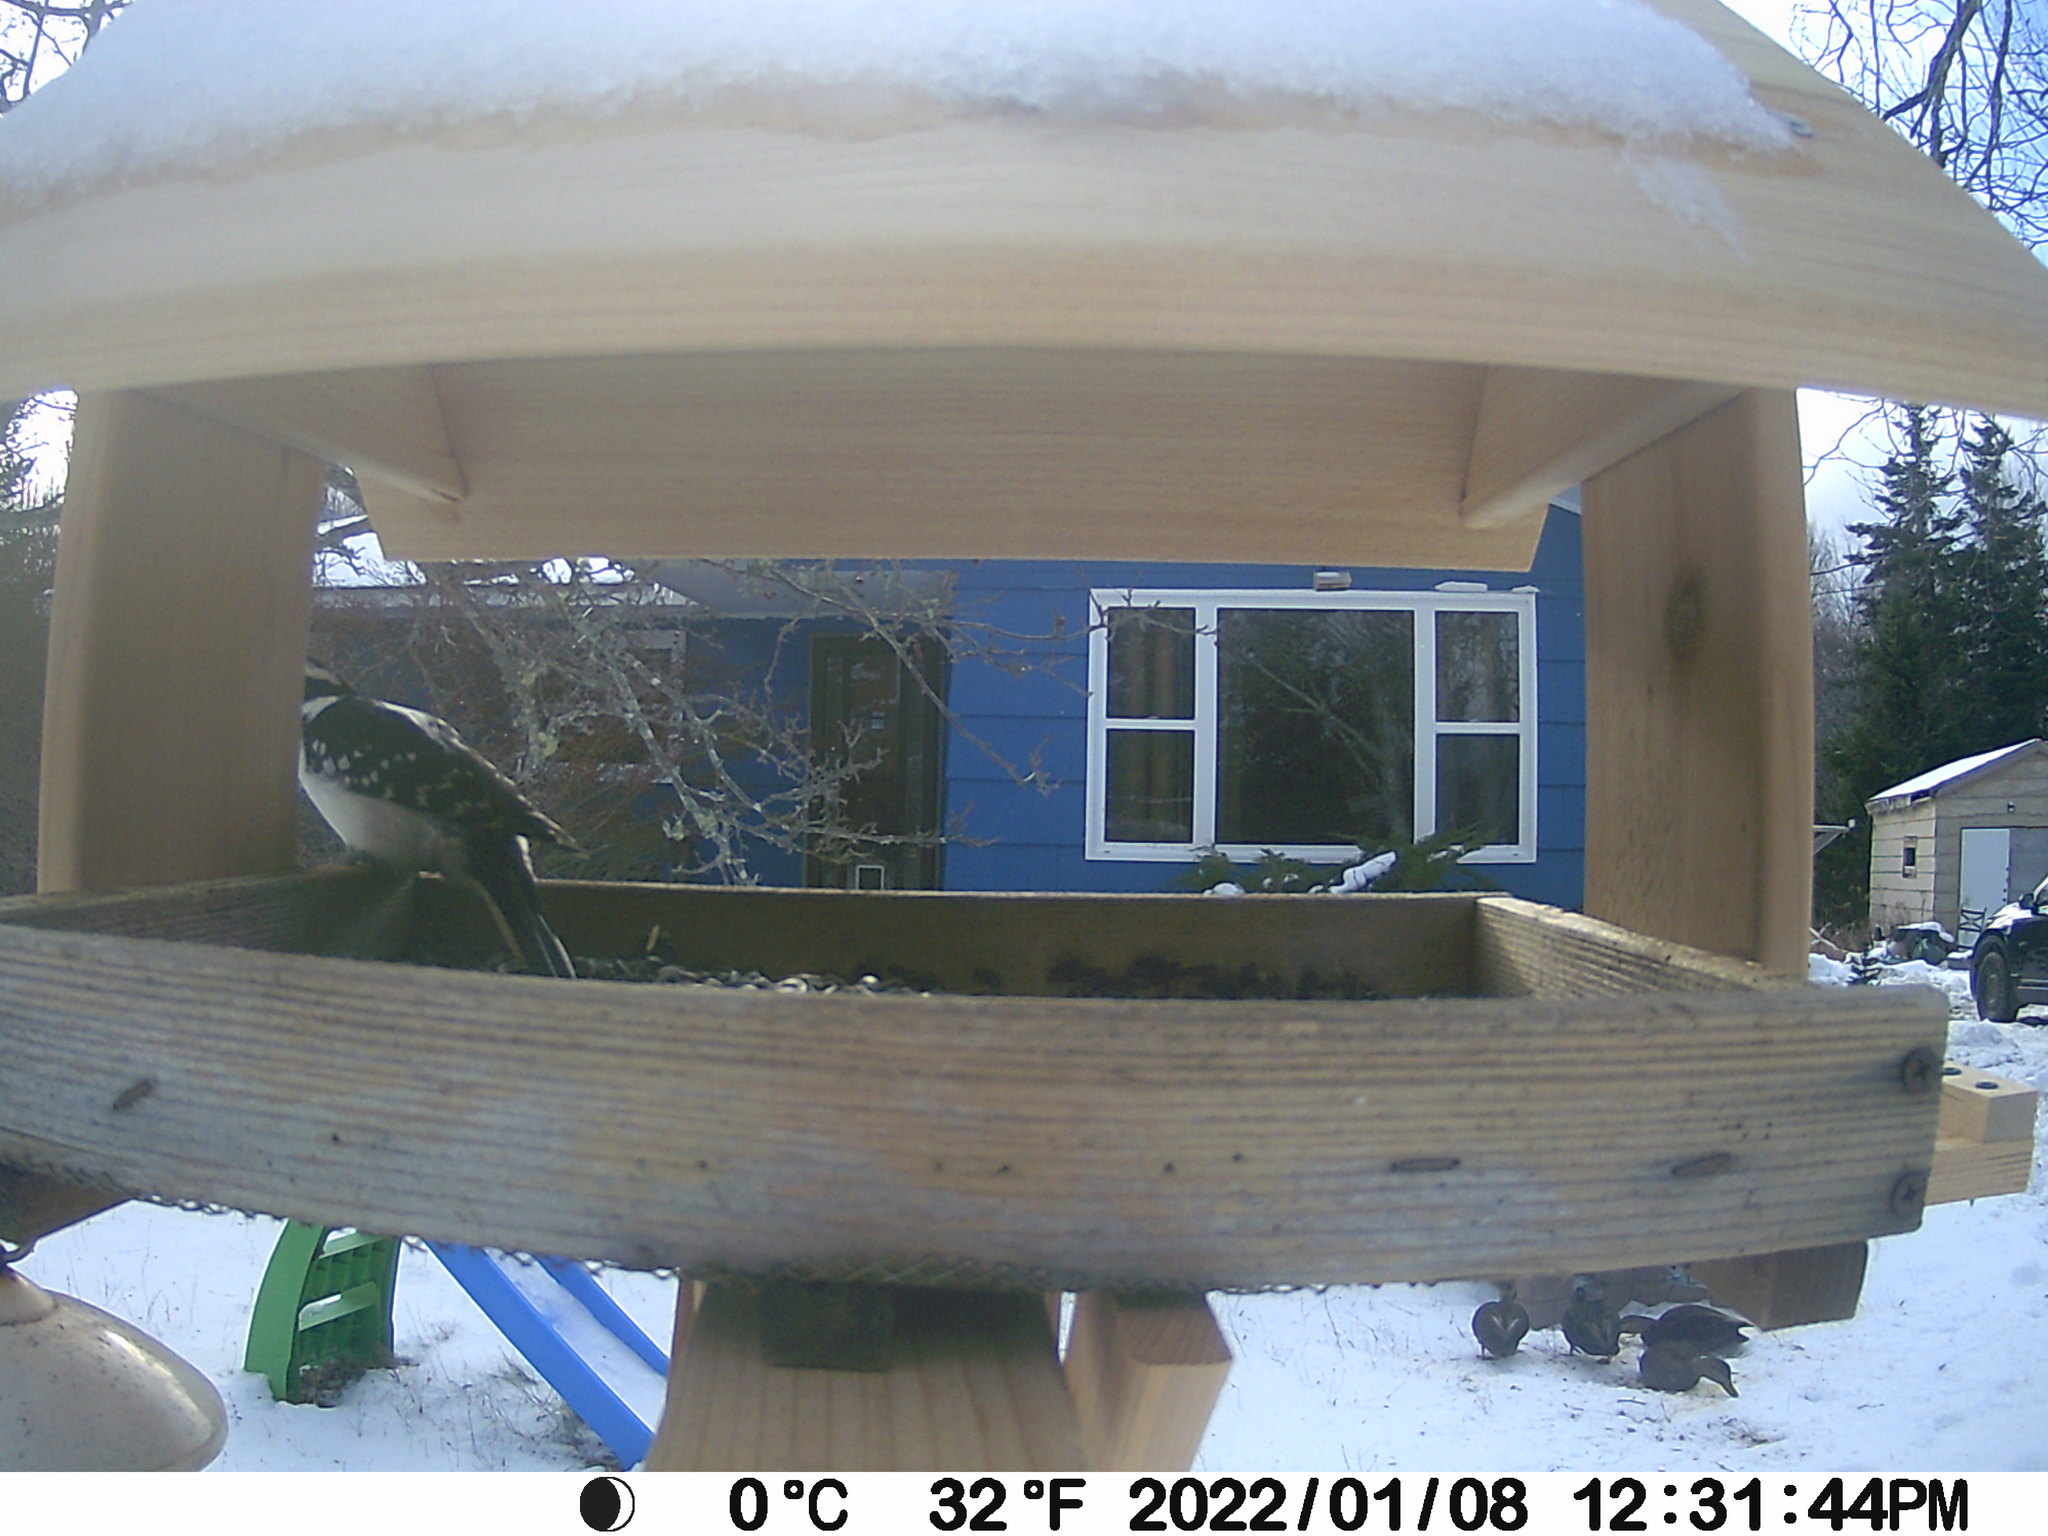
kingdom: Animalia
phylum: Chordata
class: Aves
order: Piciformes
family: Picidae
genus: Leuconotopicus
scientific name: Leuconotopicus villosus
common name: Hairy woodpecker
